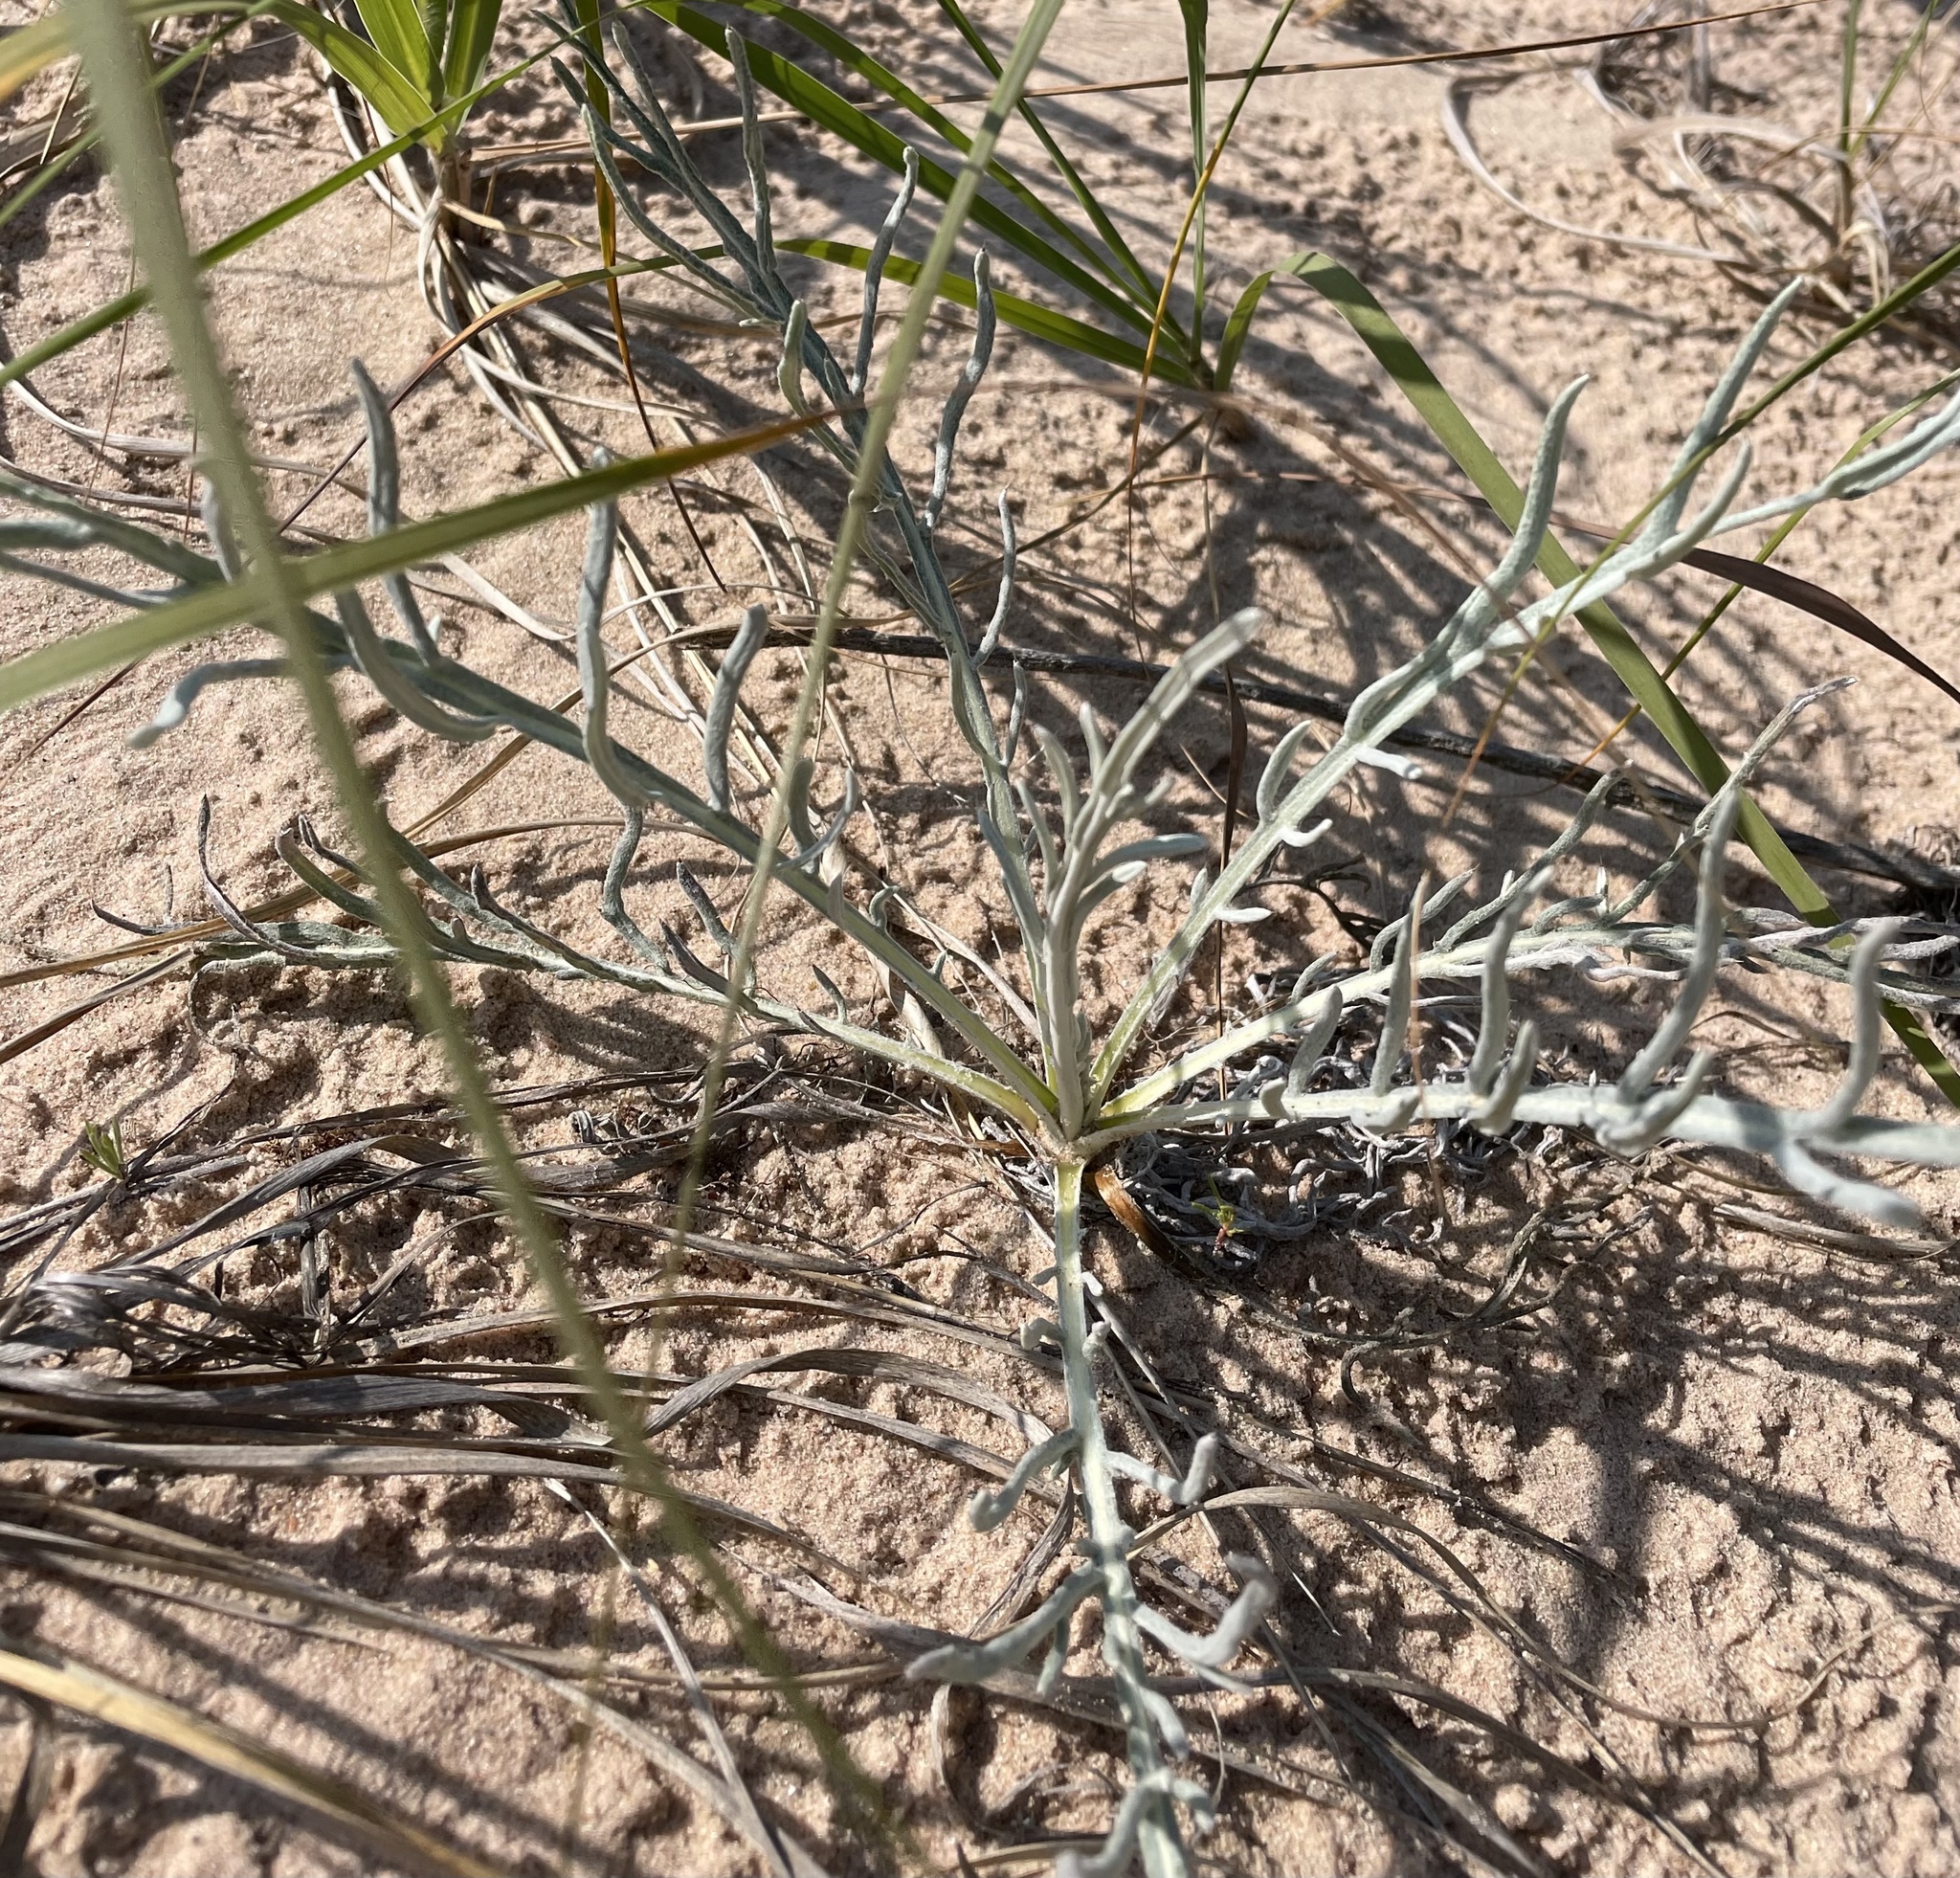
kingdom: Plantae
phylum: Tracheophyta
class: Magnoliopsida
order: Asterales
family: Asteraceae
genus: Cirsium
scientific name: Cirsium pitcheri
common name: Dune thistle
